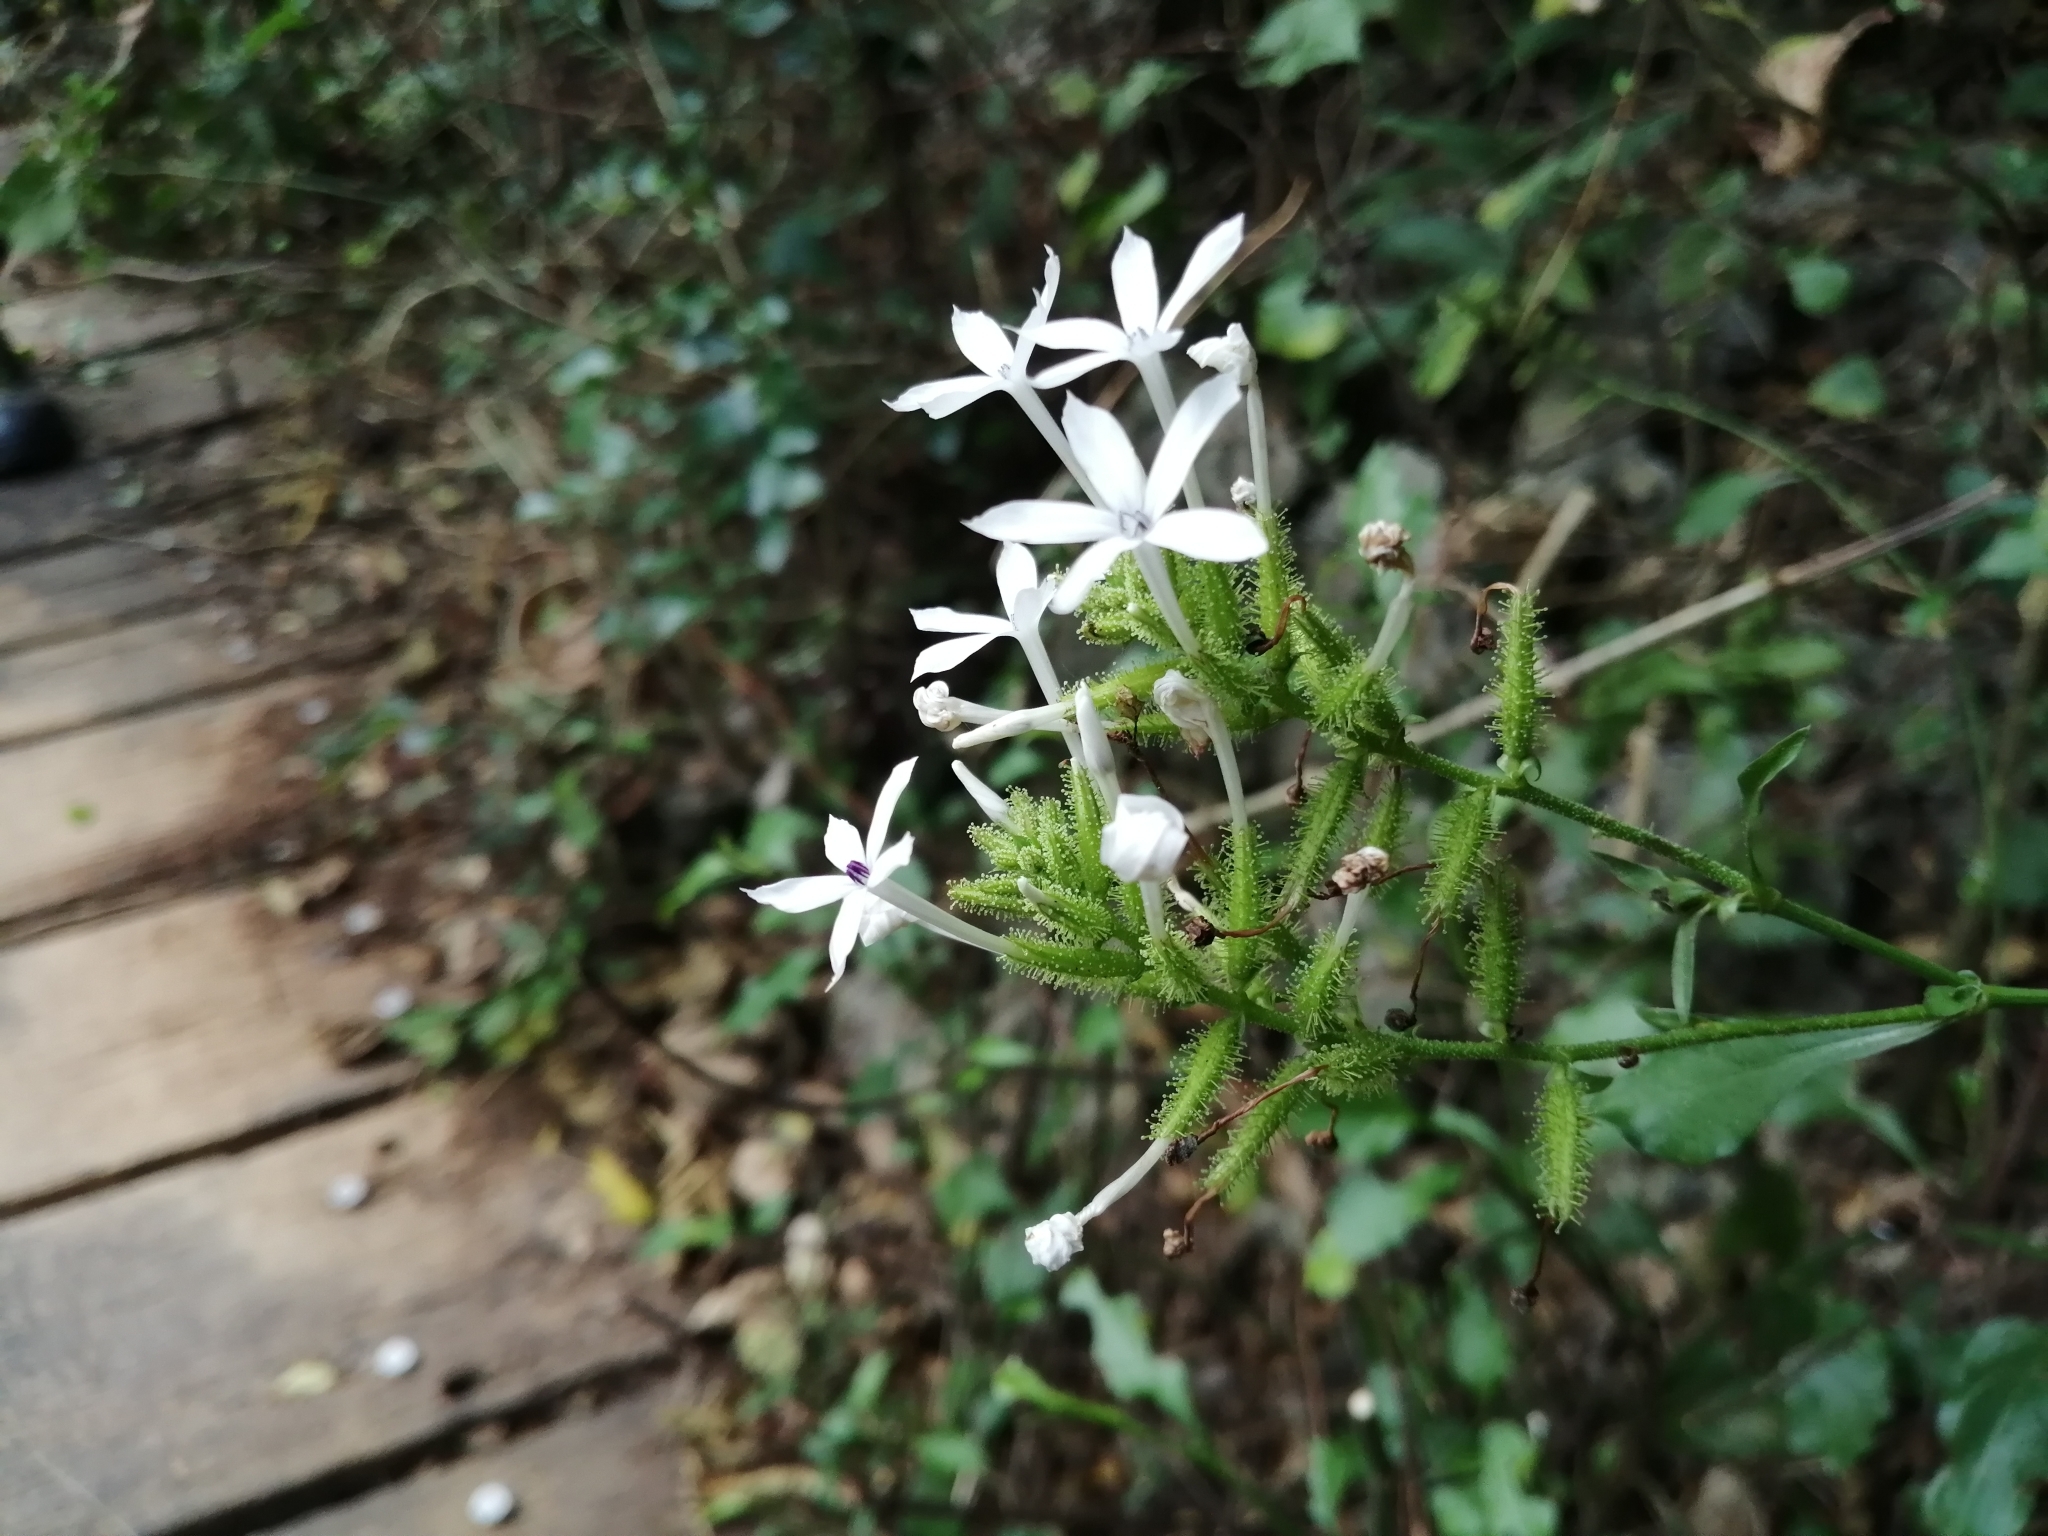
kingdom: Plantae
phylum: Tracheophyta
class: Magnoliopsida
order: Caryophyllales
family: Plumbaginaceae
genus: Plumbago
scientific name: Plumbago zeylanica
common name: Doctorbush
